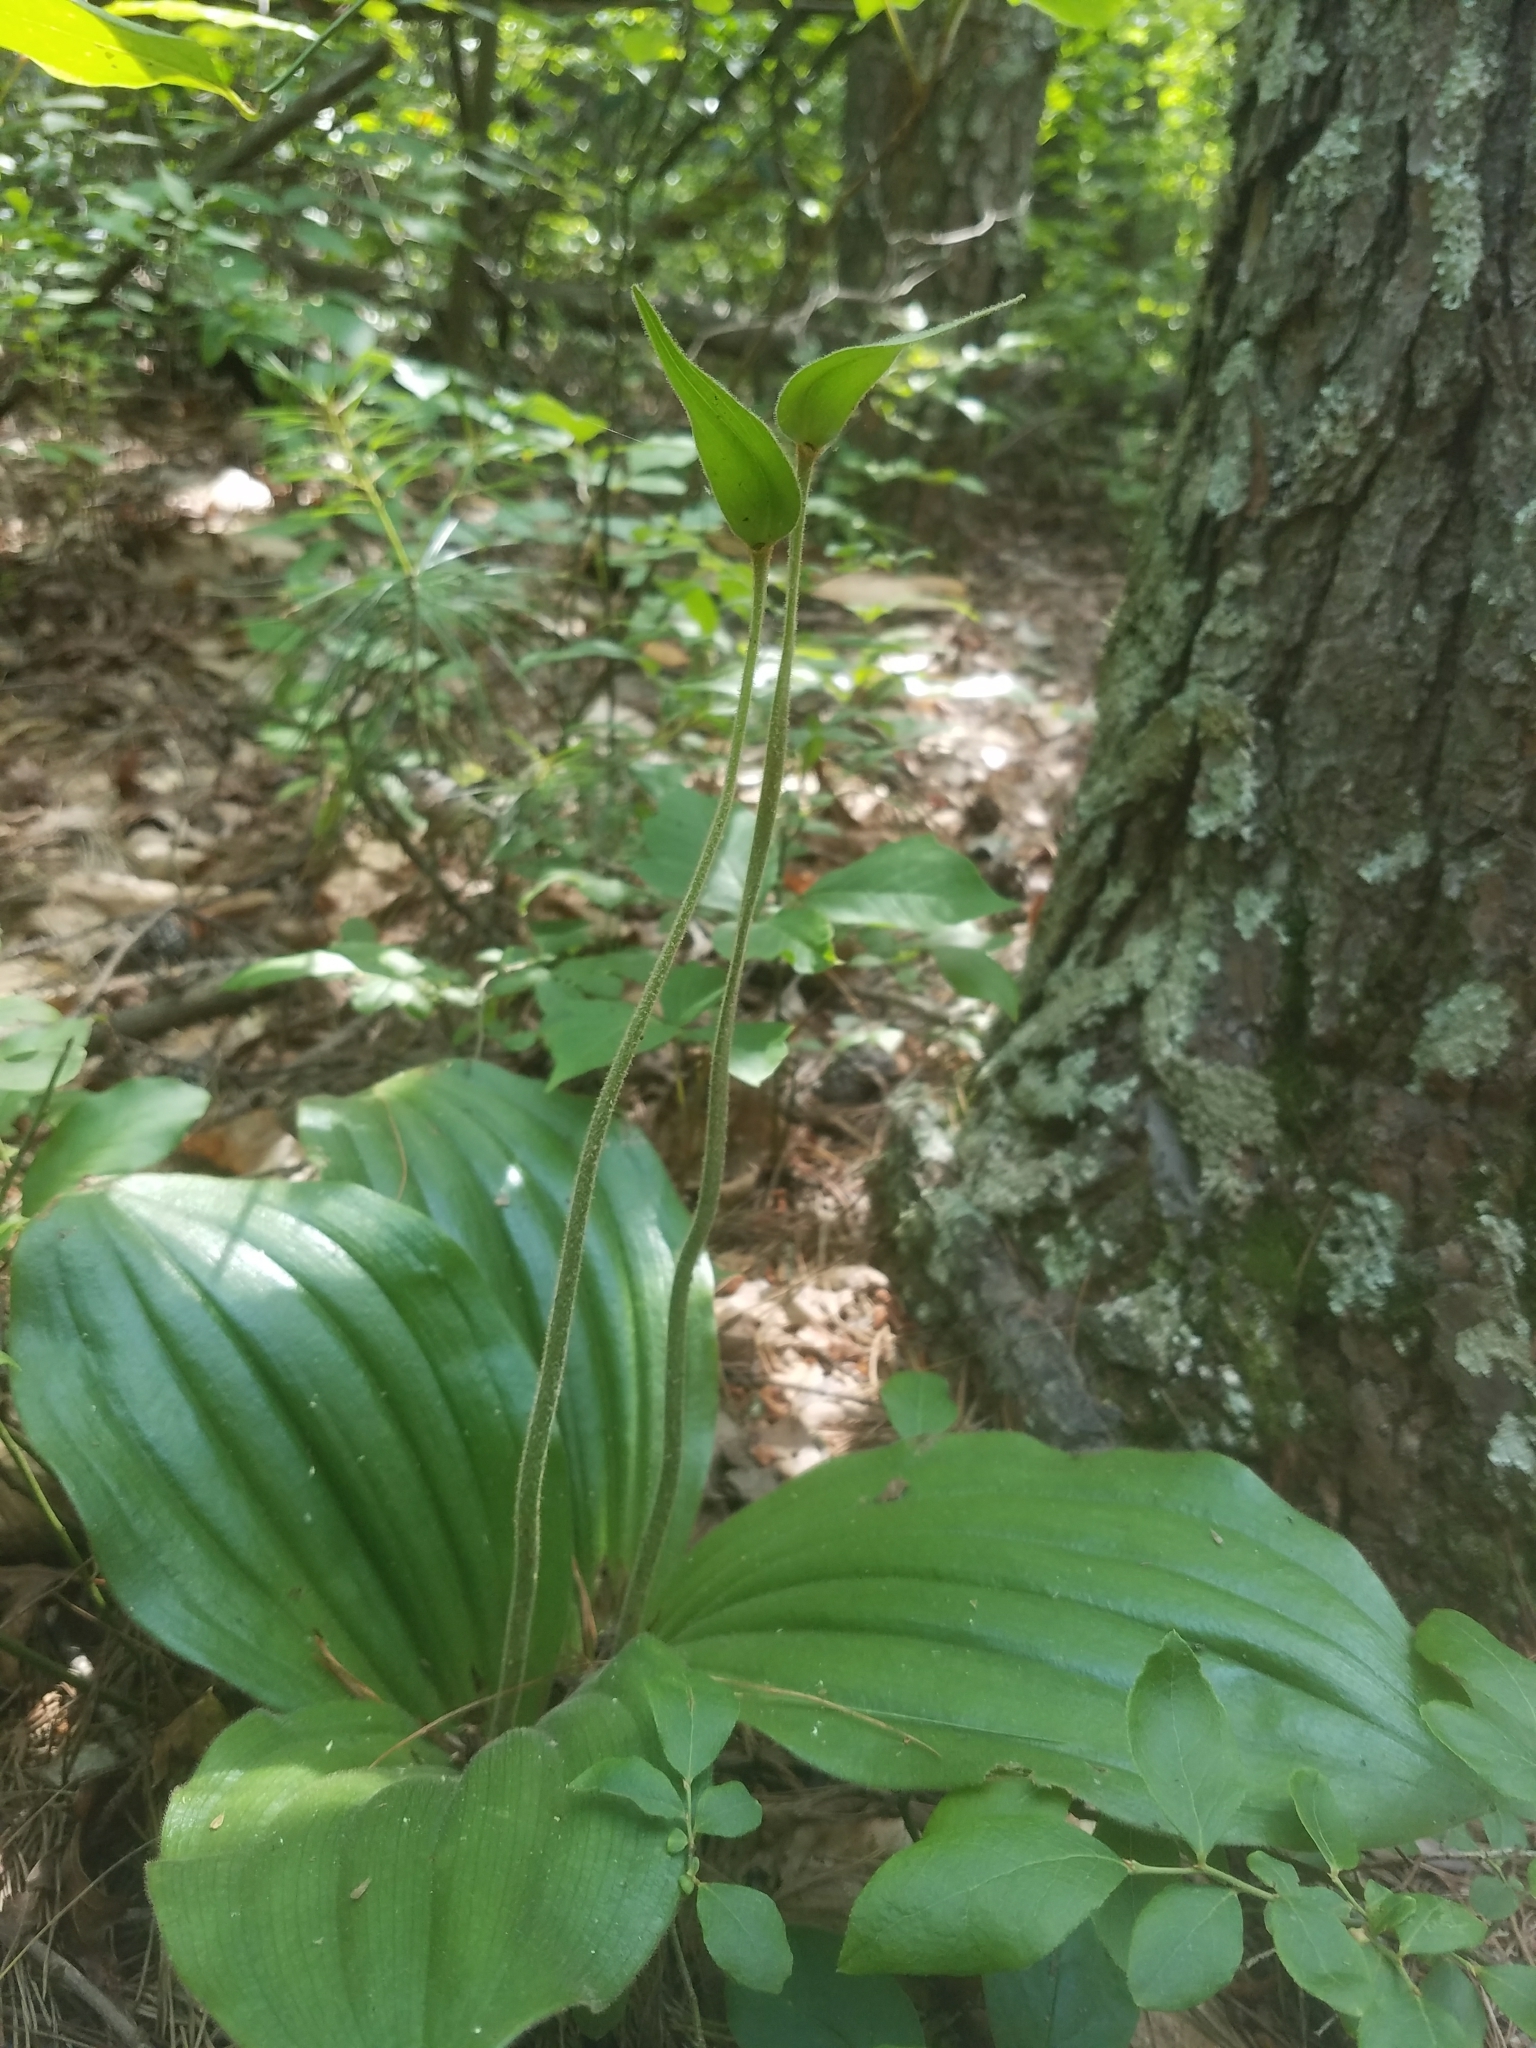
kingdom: Plantae
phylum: Tracheophyta
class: Liliopsida
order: Asparagales
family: Orchidaceae
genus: Cypripedium
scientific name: Cypripedium acaule
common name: Pink lady's-slipper
